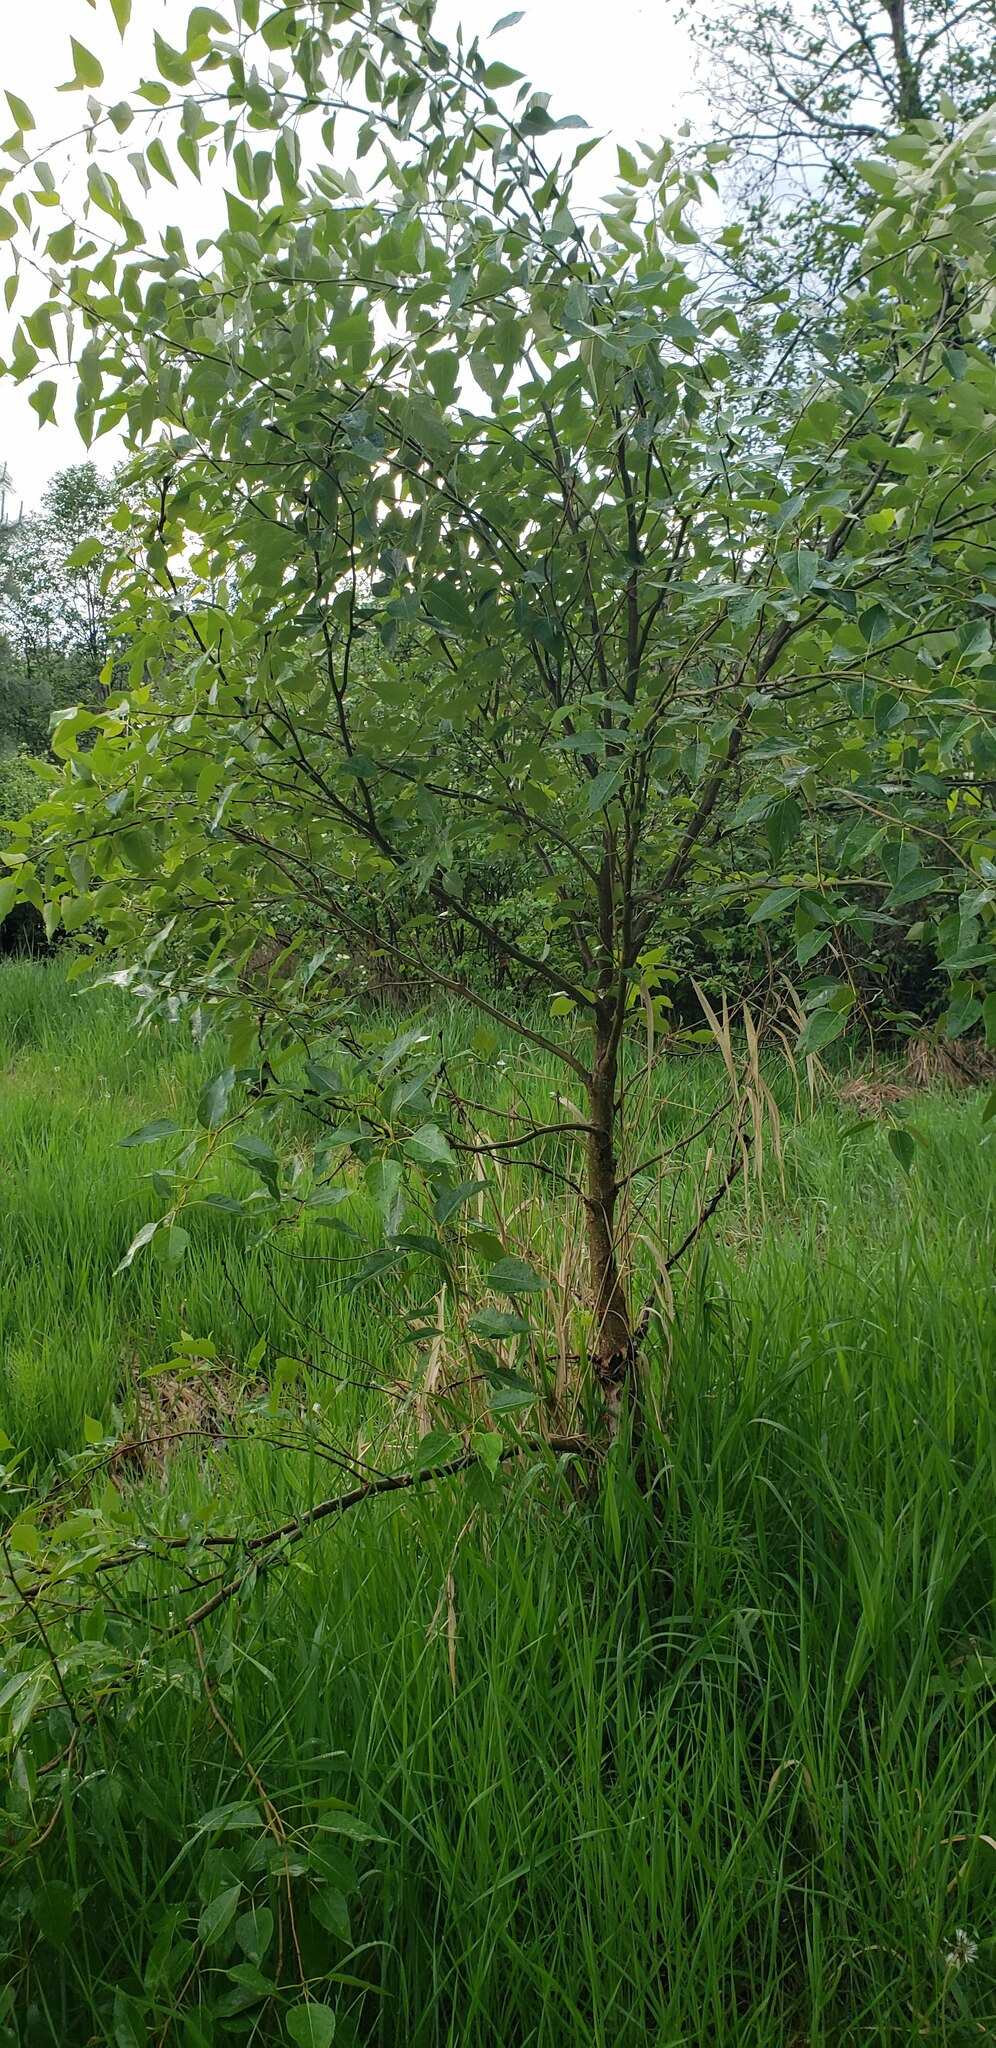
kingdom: Plantae
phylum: Tracheophyta
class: Magnoliopsida
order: Malpighiales
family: Salicaceae
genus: Populus
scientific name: Populus trichocarpa
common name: Black cottonwood
